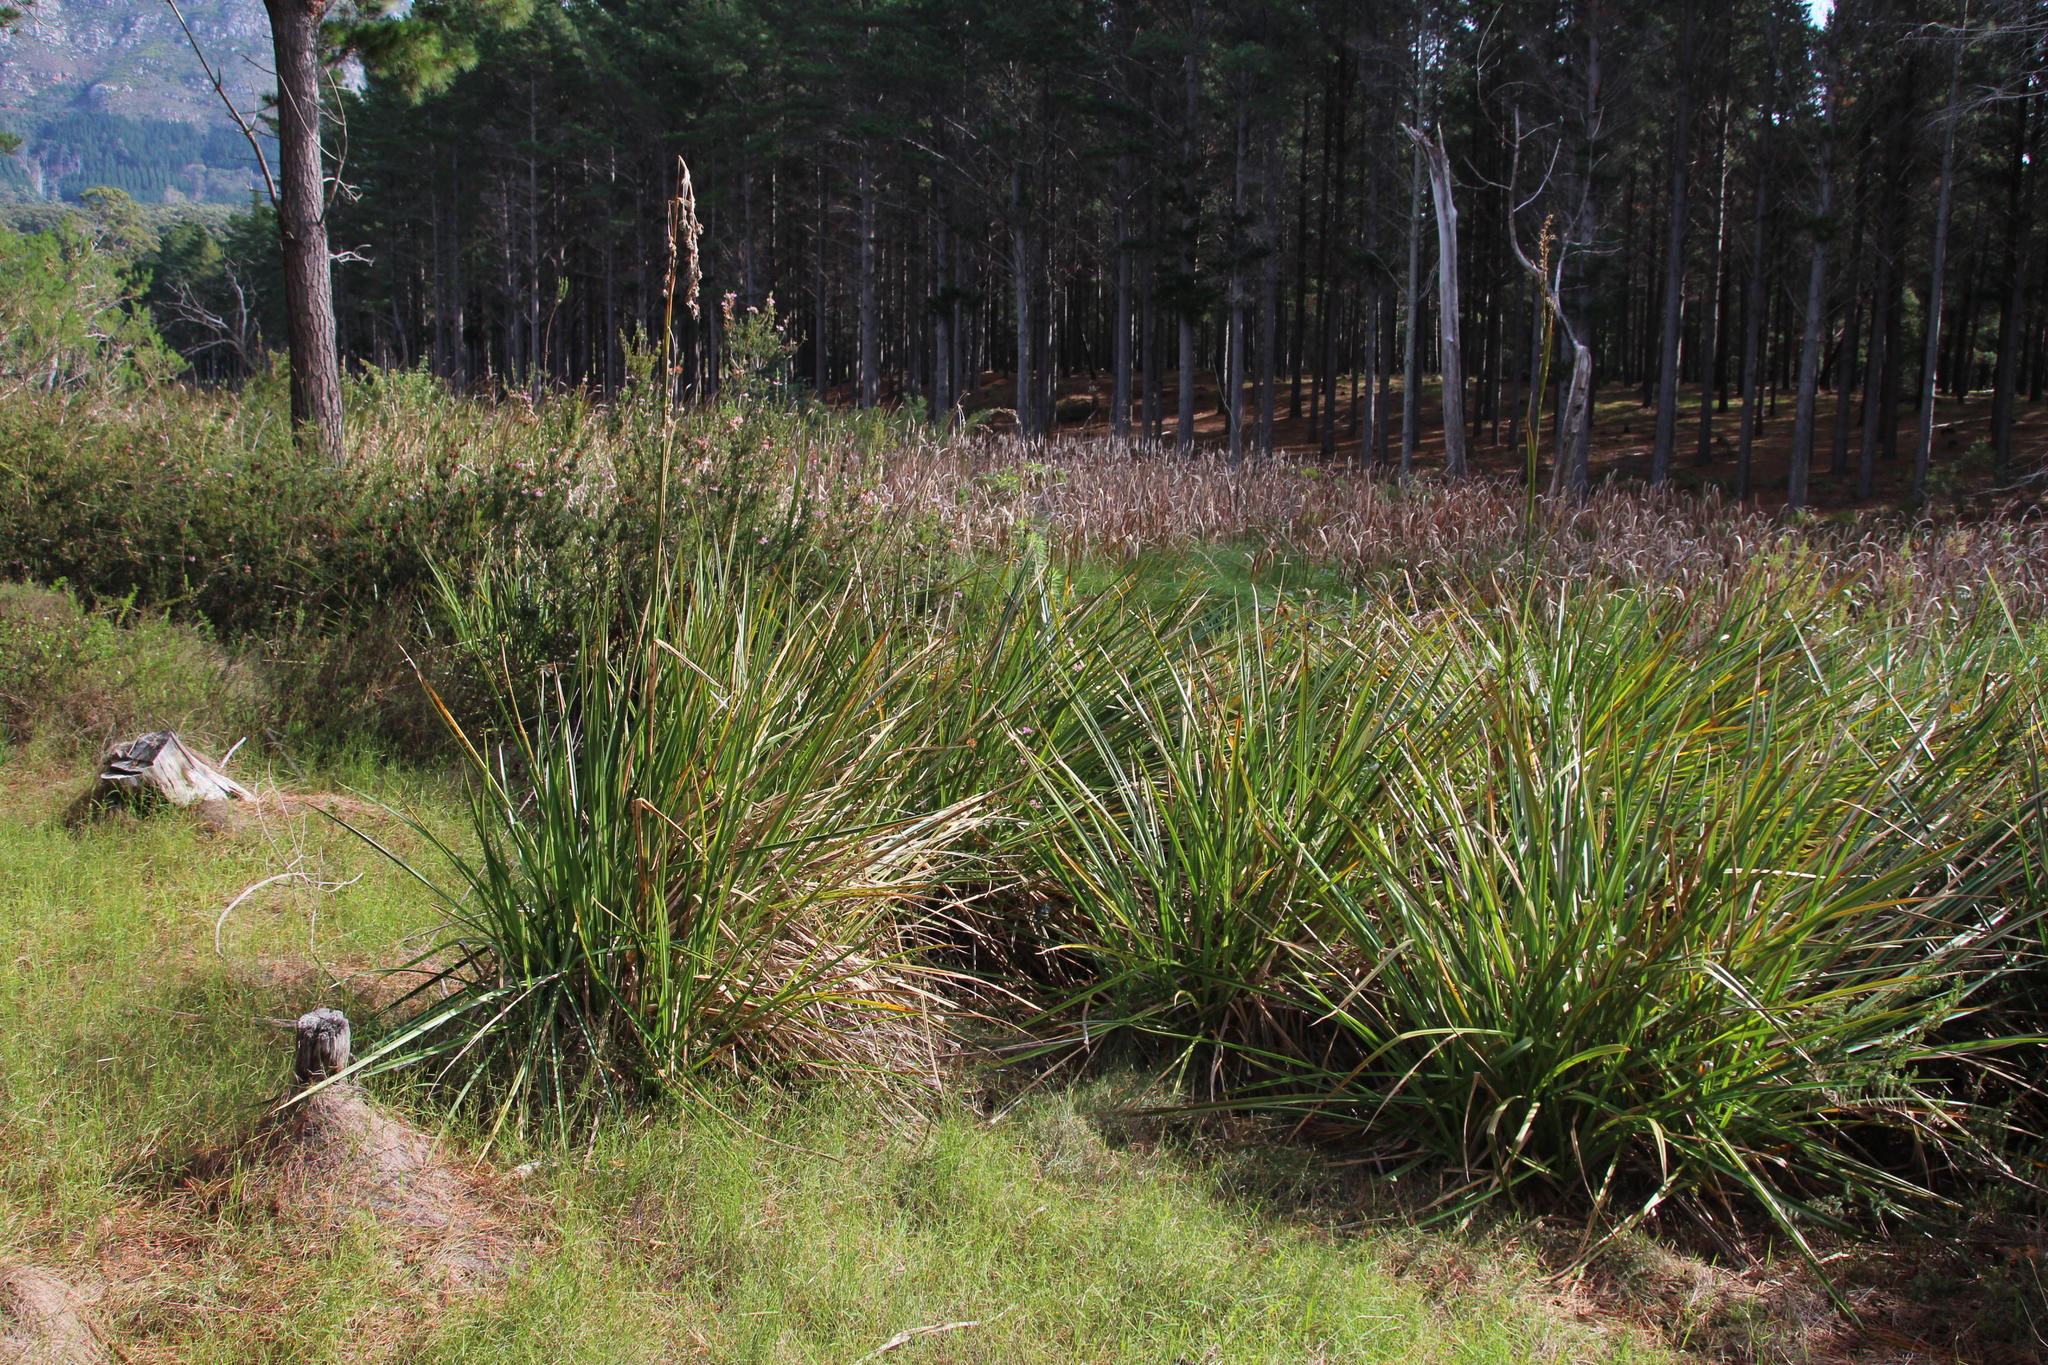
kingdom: Plantae
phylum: Tracheophyta
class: Liliopsida
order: Poales
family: Cyperaceae
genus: Carpha
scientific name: Carpha glomerata
